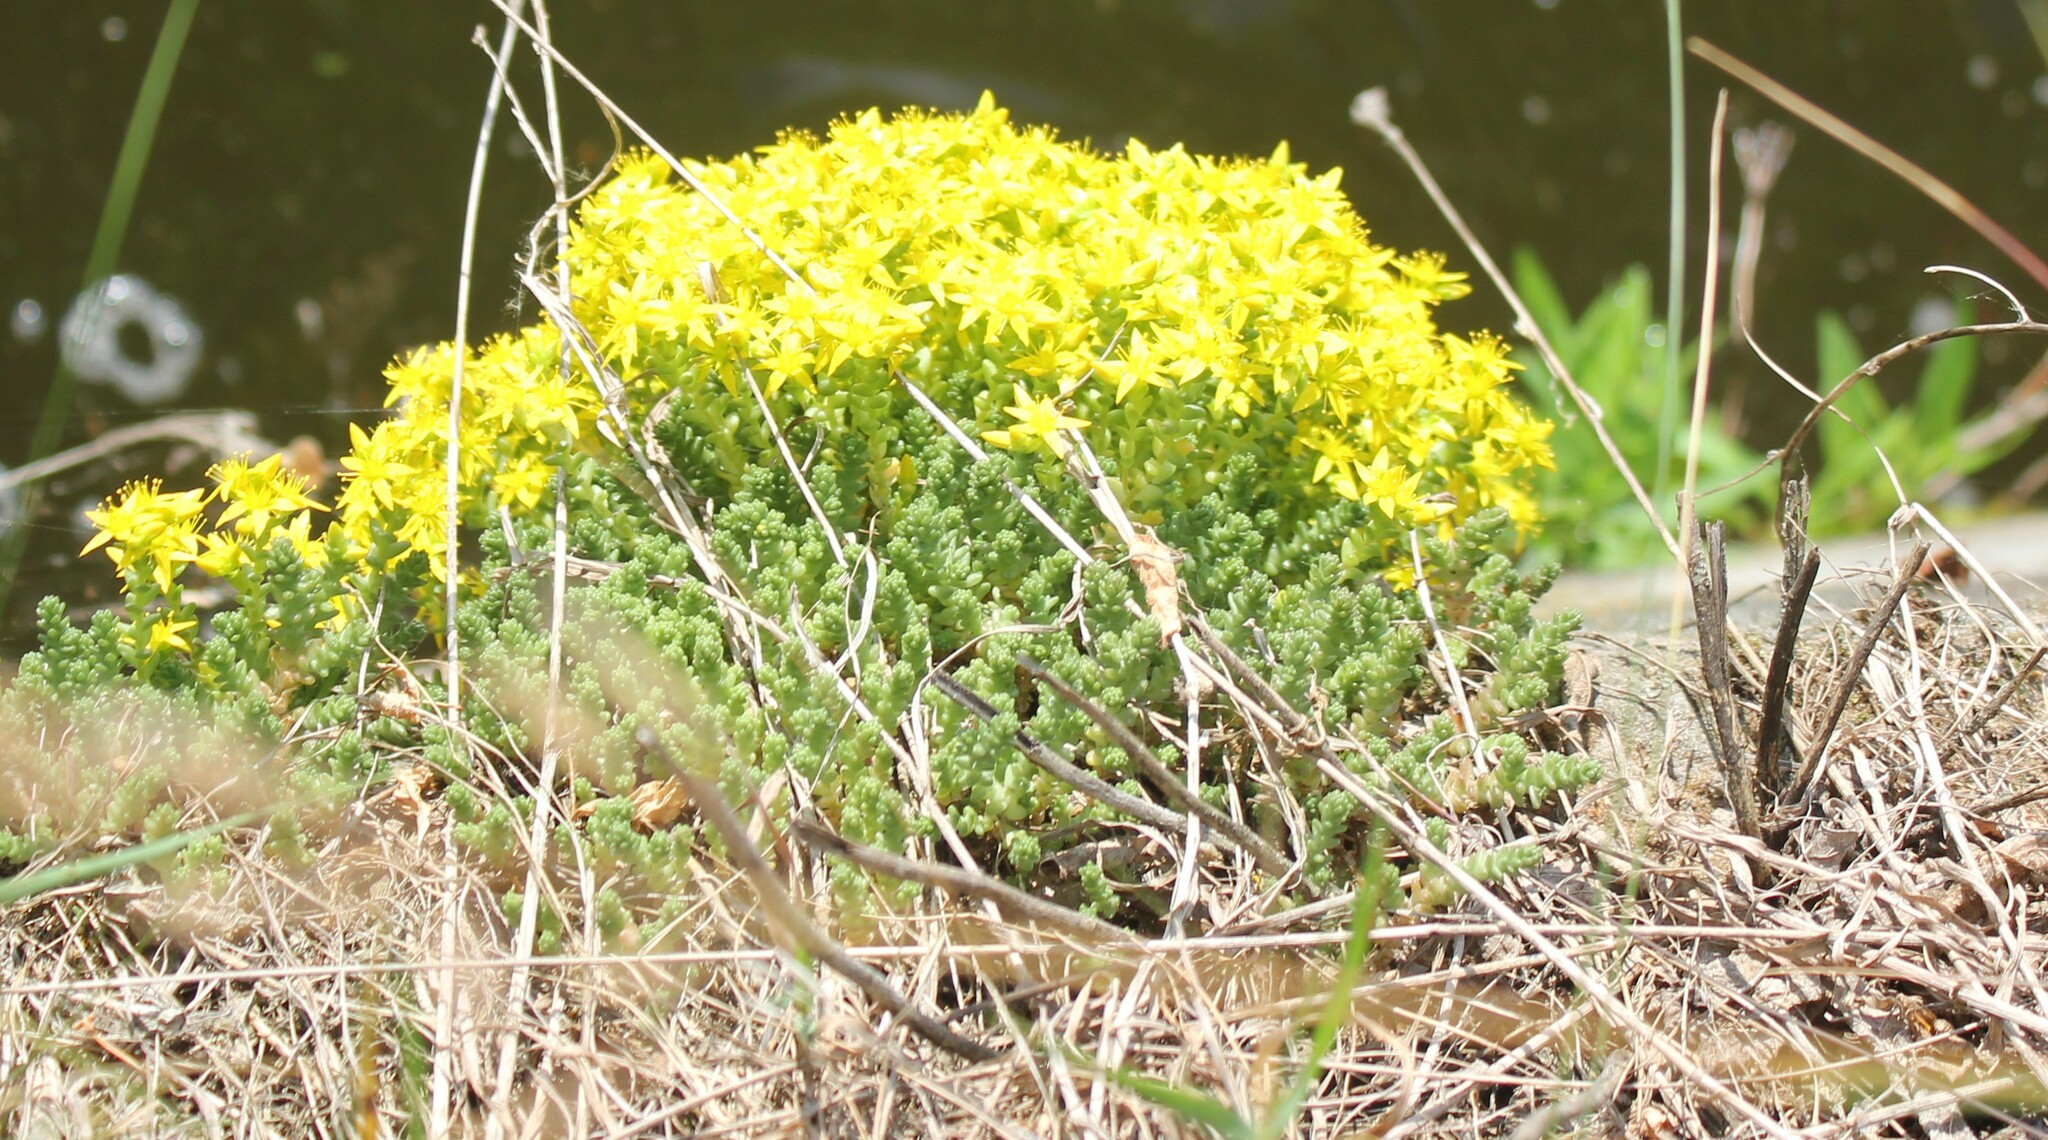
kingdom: Plantae
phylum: Tracheophyta
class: Magnoliopsida
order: Saxifragales
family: Crassulaceae
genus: Sedum
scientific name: Sedum acre
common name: Biting stonecrop
